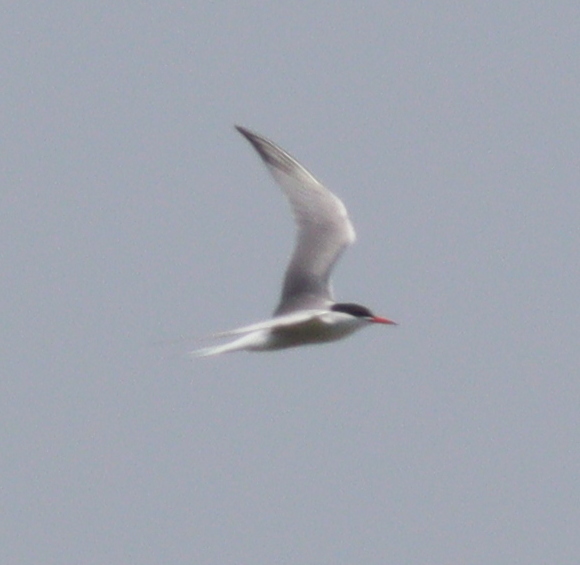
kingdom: Animalia
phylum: Chordata
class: Aves
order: Charadriiformes
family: Laridae
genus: Sterna
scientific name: Sterna hirundo
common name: Common tern
